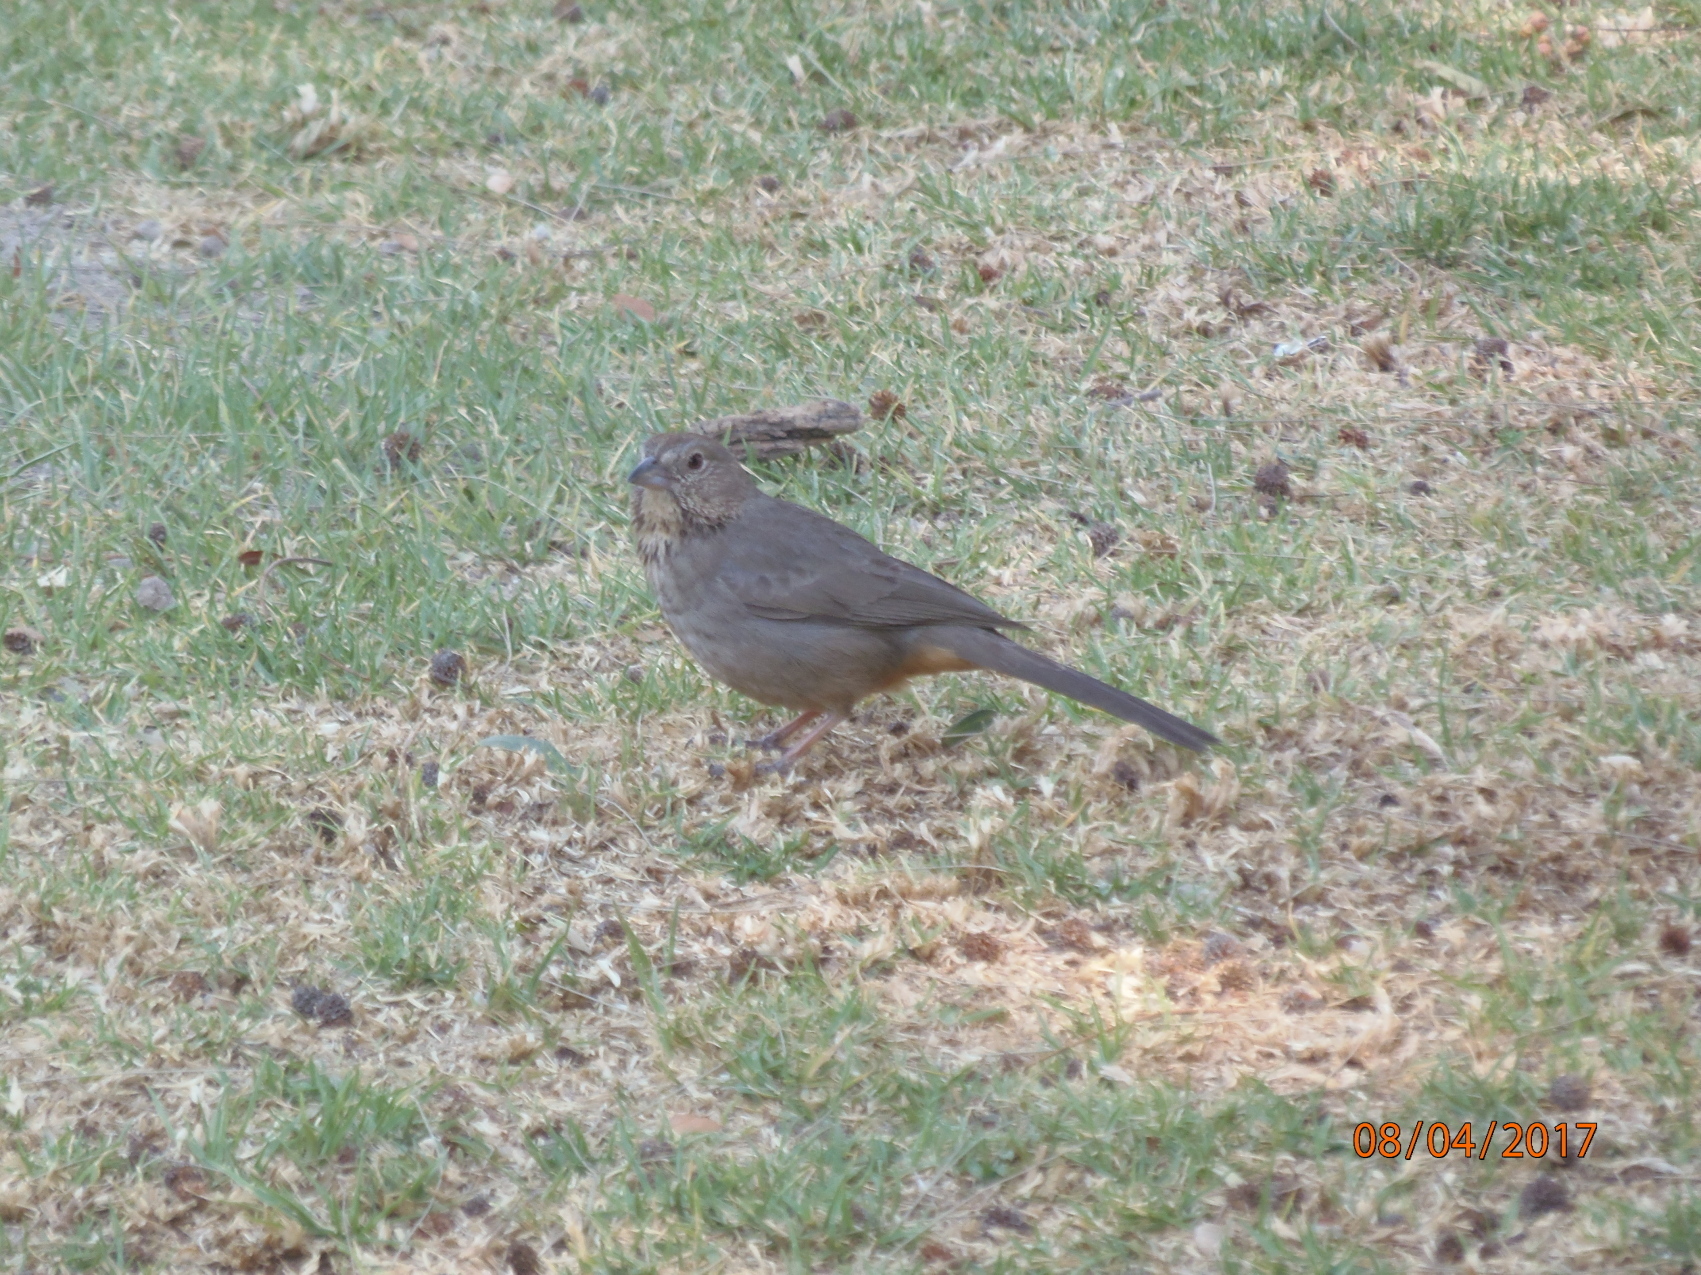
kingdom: Animalia
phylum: Chordata
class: Aves
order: Passeriformes
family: Passerellidae
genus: Melozone
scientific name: Melozone fusca
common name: Canyon towhee
